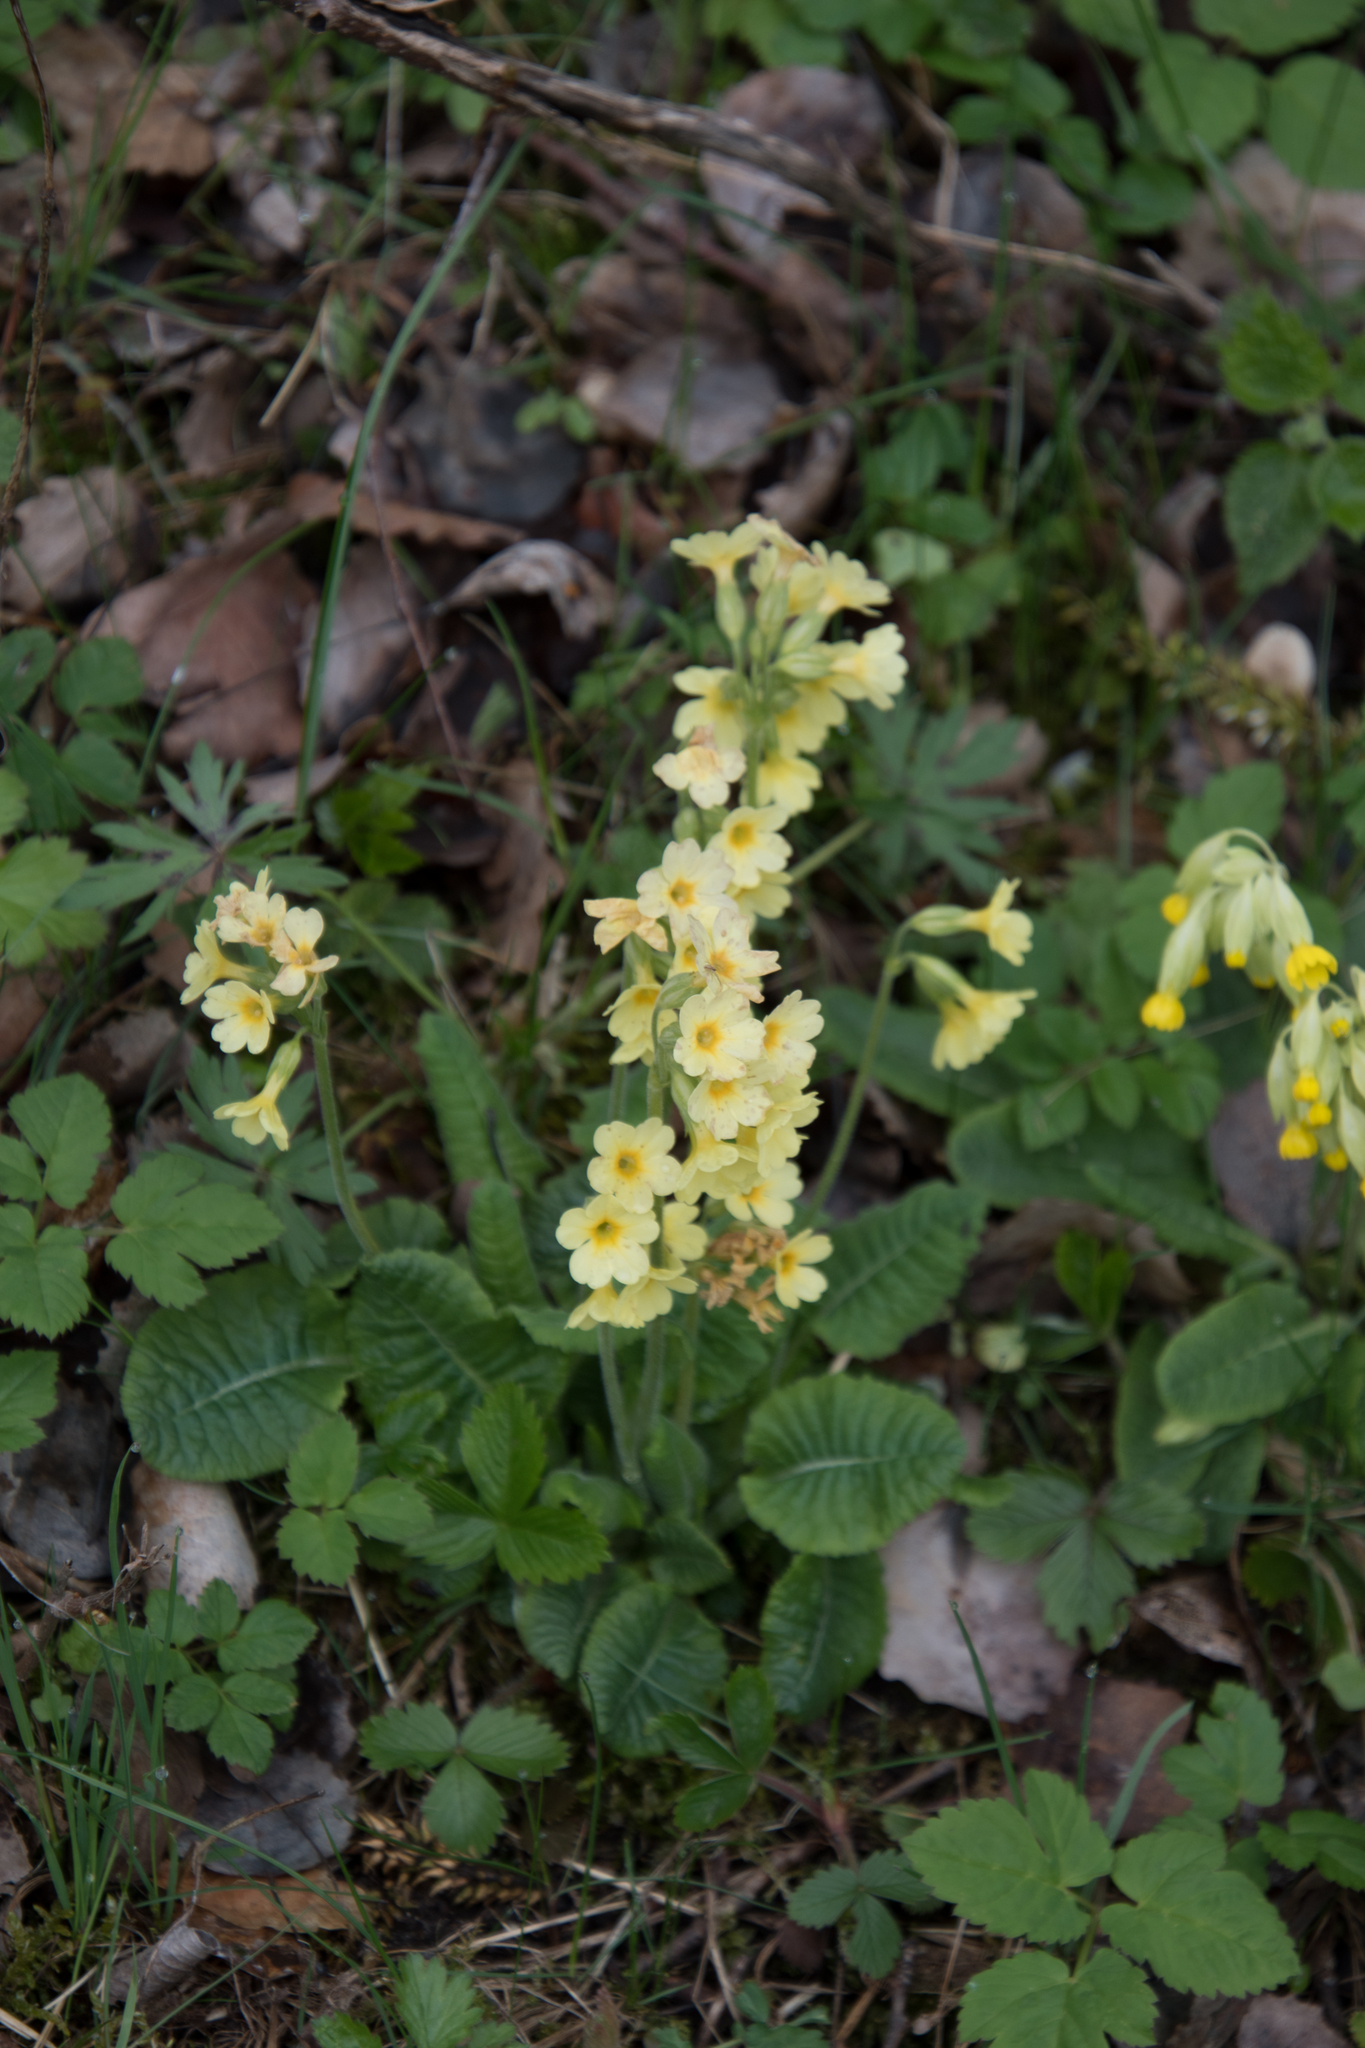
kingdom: Plantae
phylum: Tracheophyta
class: Magnoliopsida
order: Ericales
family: Primulaceae
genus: Primula
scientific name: Primula elatior
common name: Oxlip
